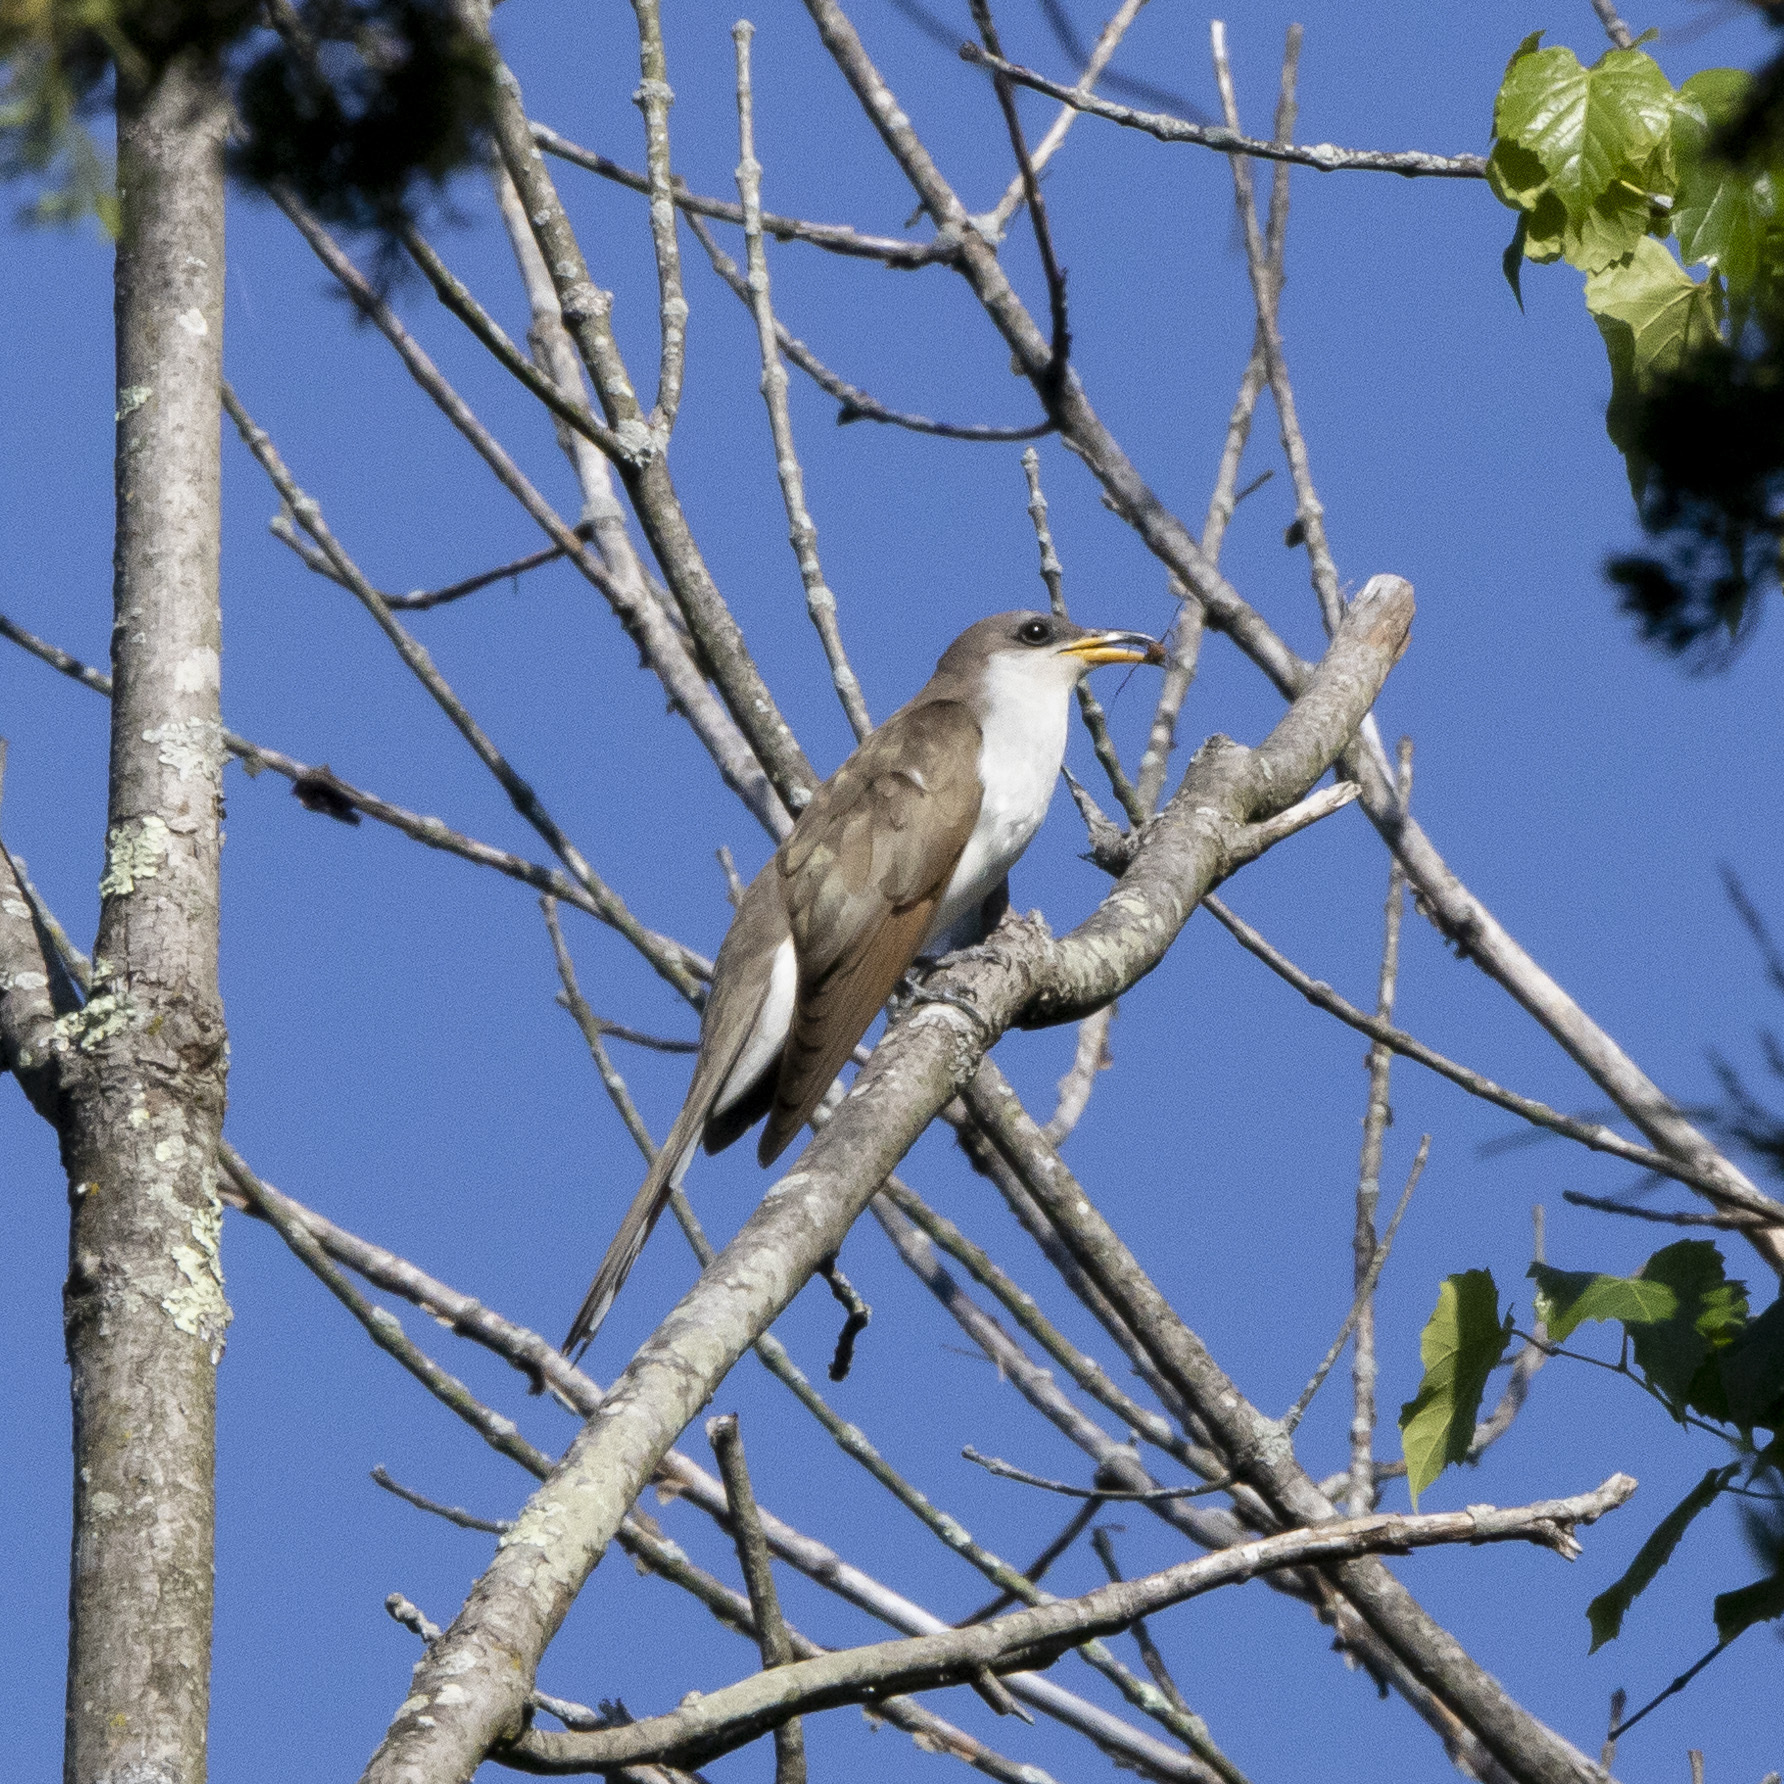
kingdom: Animalia
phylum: Chordata
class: Aves
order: Cuculiformes
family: Cuculidae
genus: Coccyzus
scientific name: Coccyzus americanus
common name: Yellow-billed cuckoo
